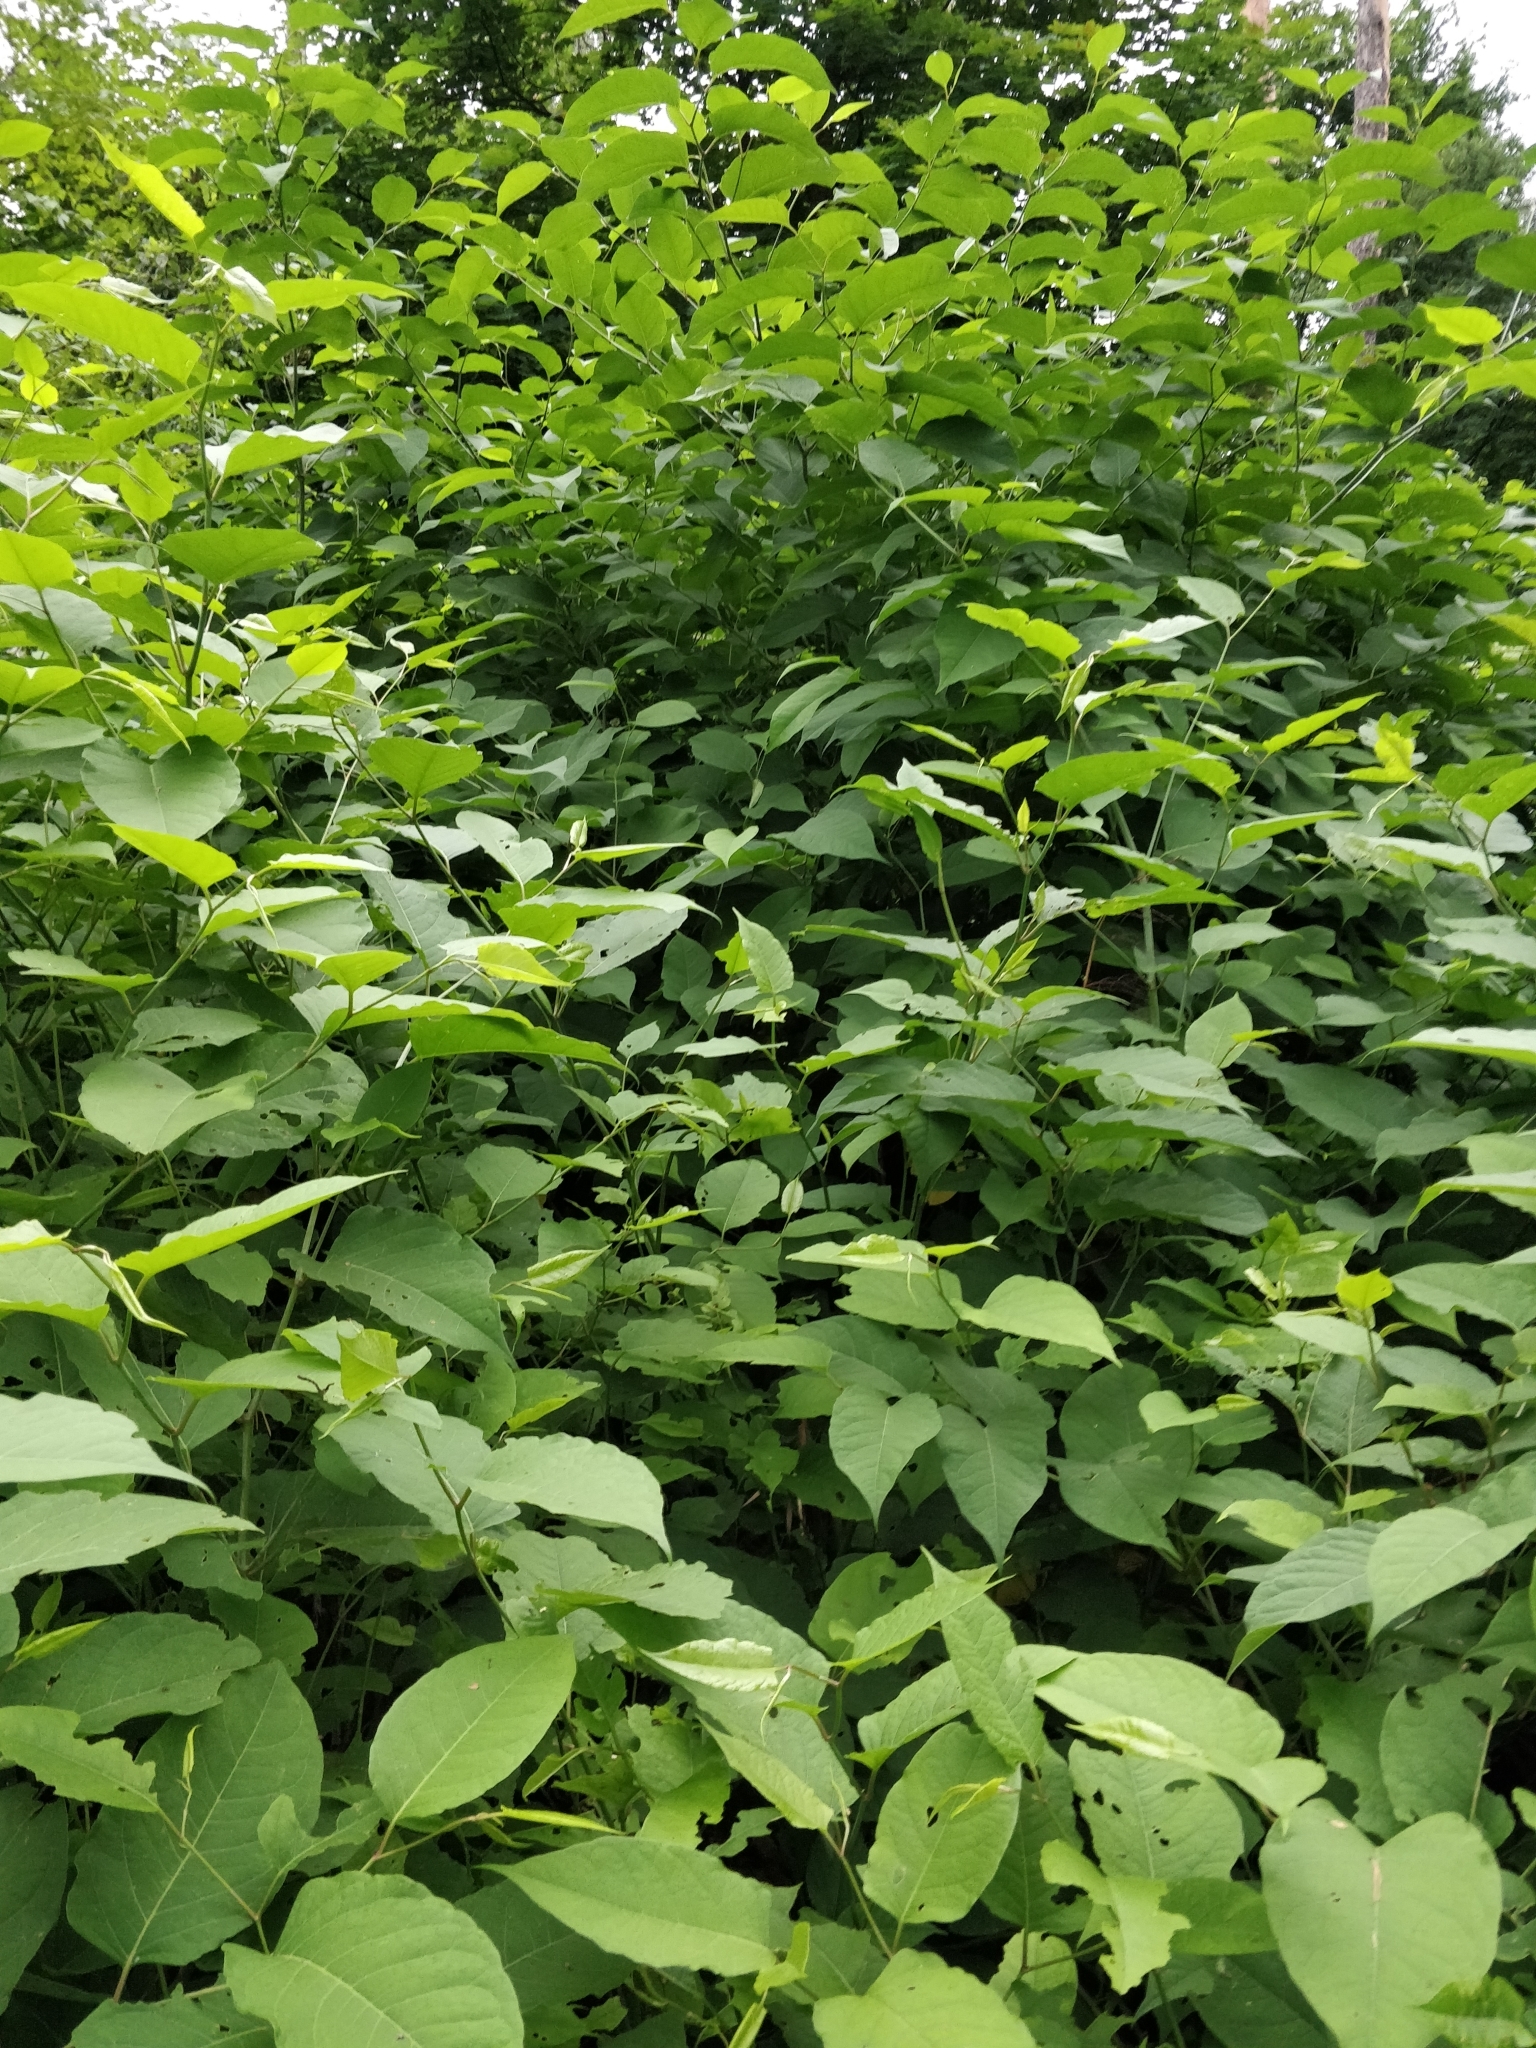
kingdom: Plantae
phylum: Tracheophyta
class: Magnoliopsida
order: Caryophyllales
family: Polygonaceae
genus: Reynoutria
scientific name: Reynoutria bohemica
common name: Bohemian knotweed
